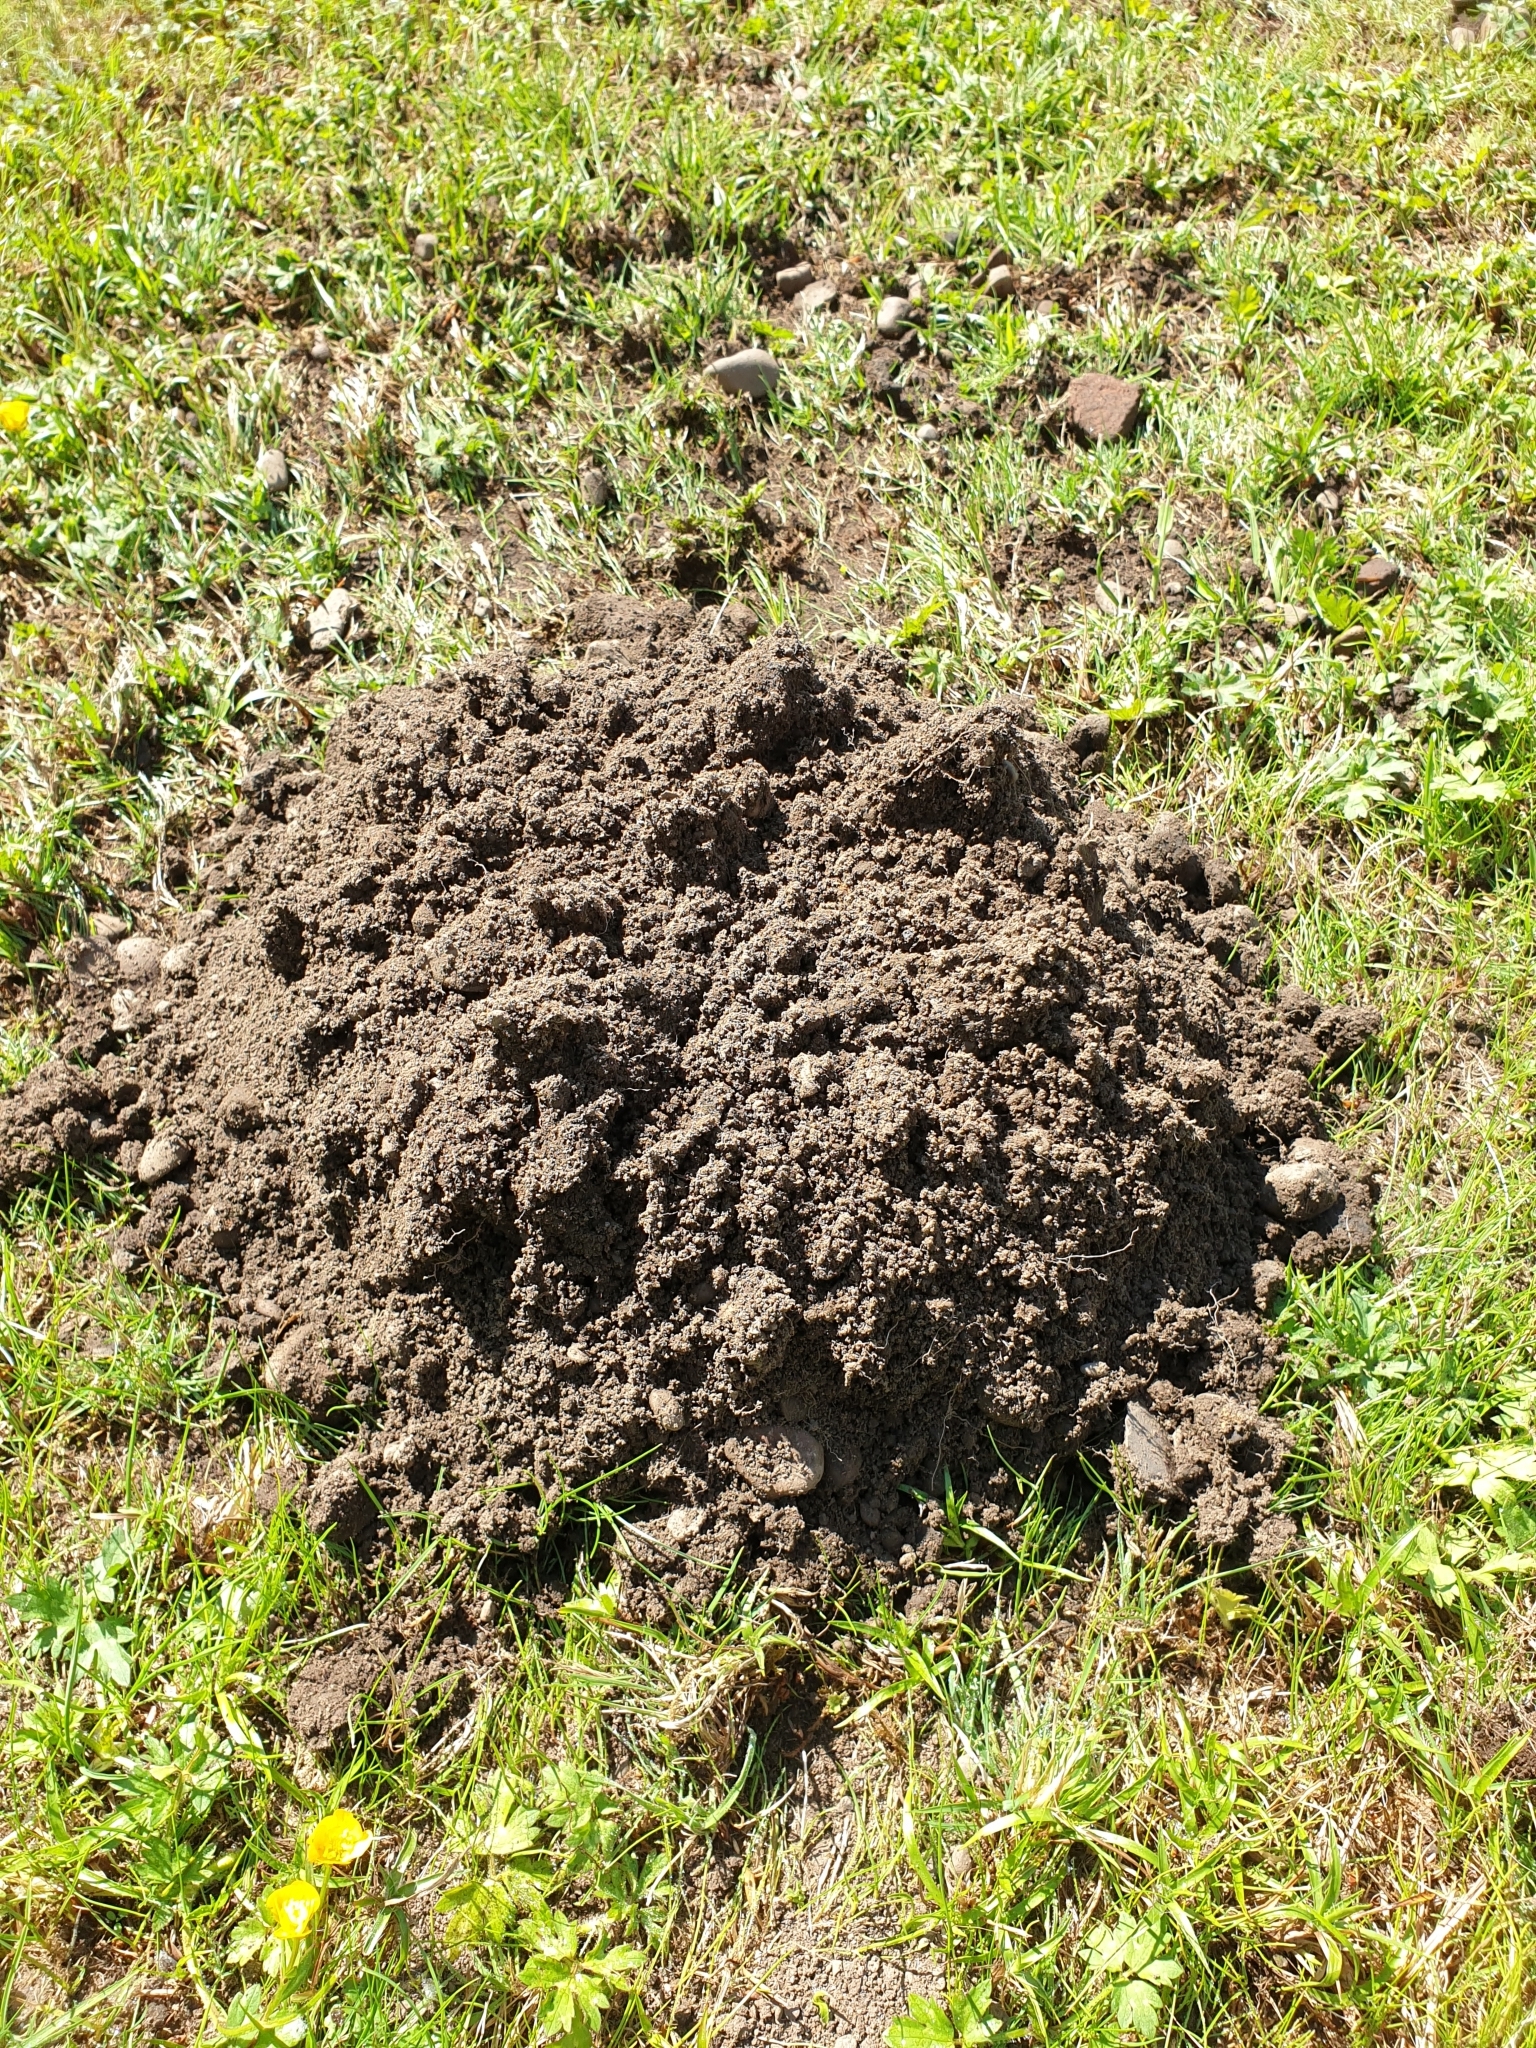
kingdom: Animalia
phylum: Chordata
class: Mammalia
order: Soricomorpha
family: Talpidae
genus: Talpa
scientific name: Talpa europaea
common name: European mole
